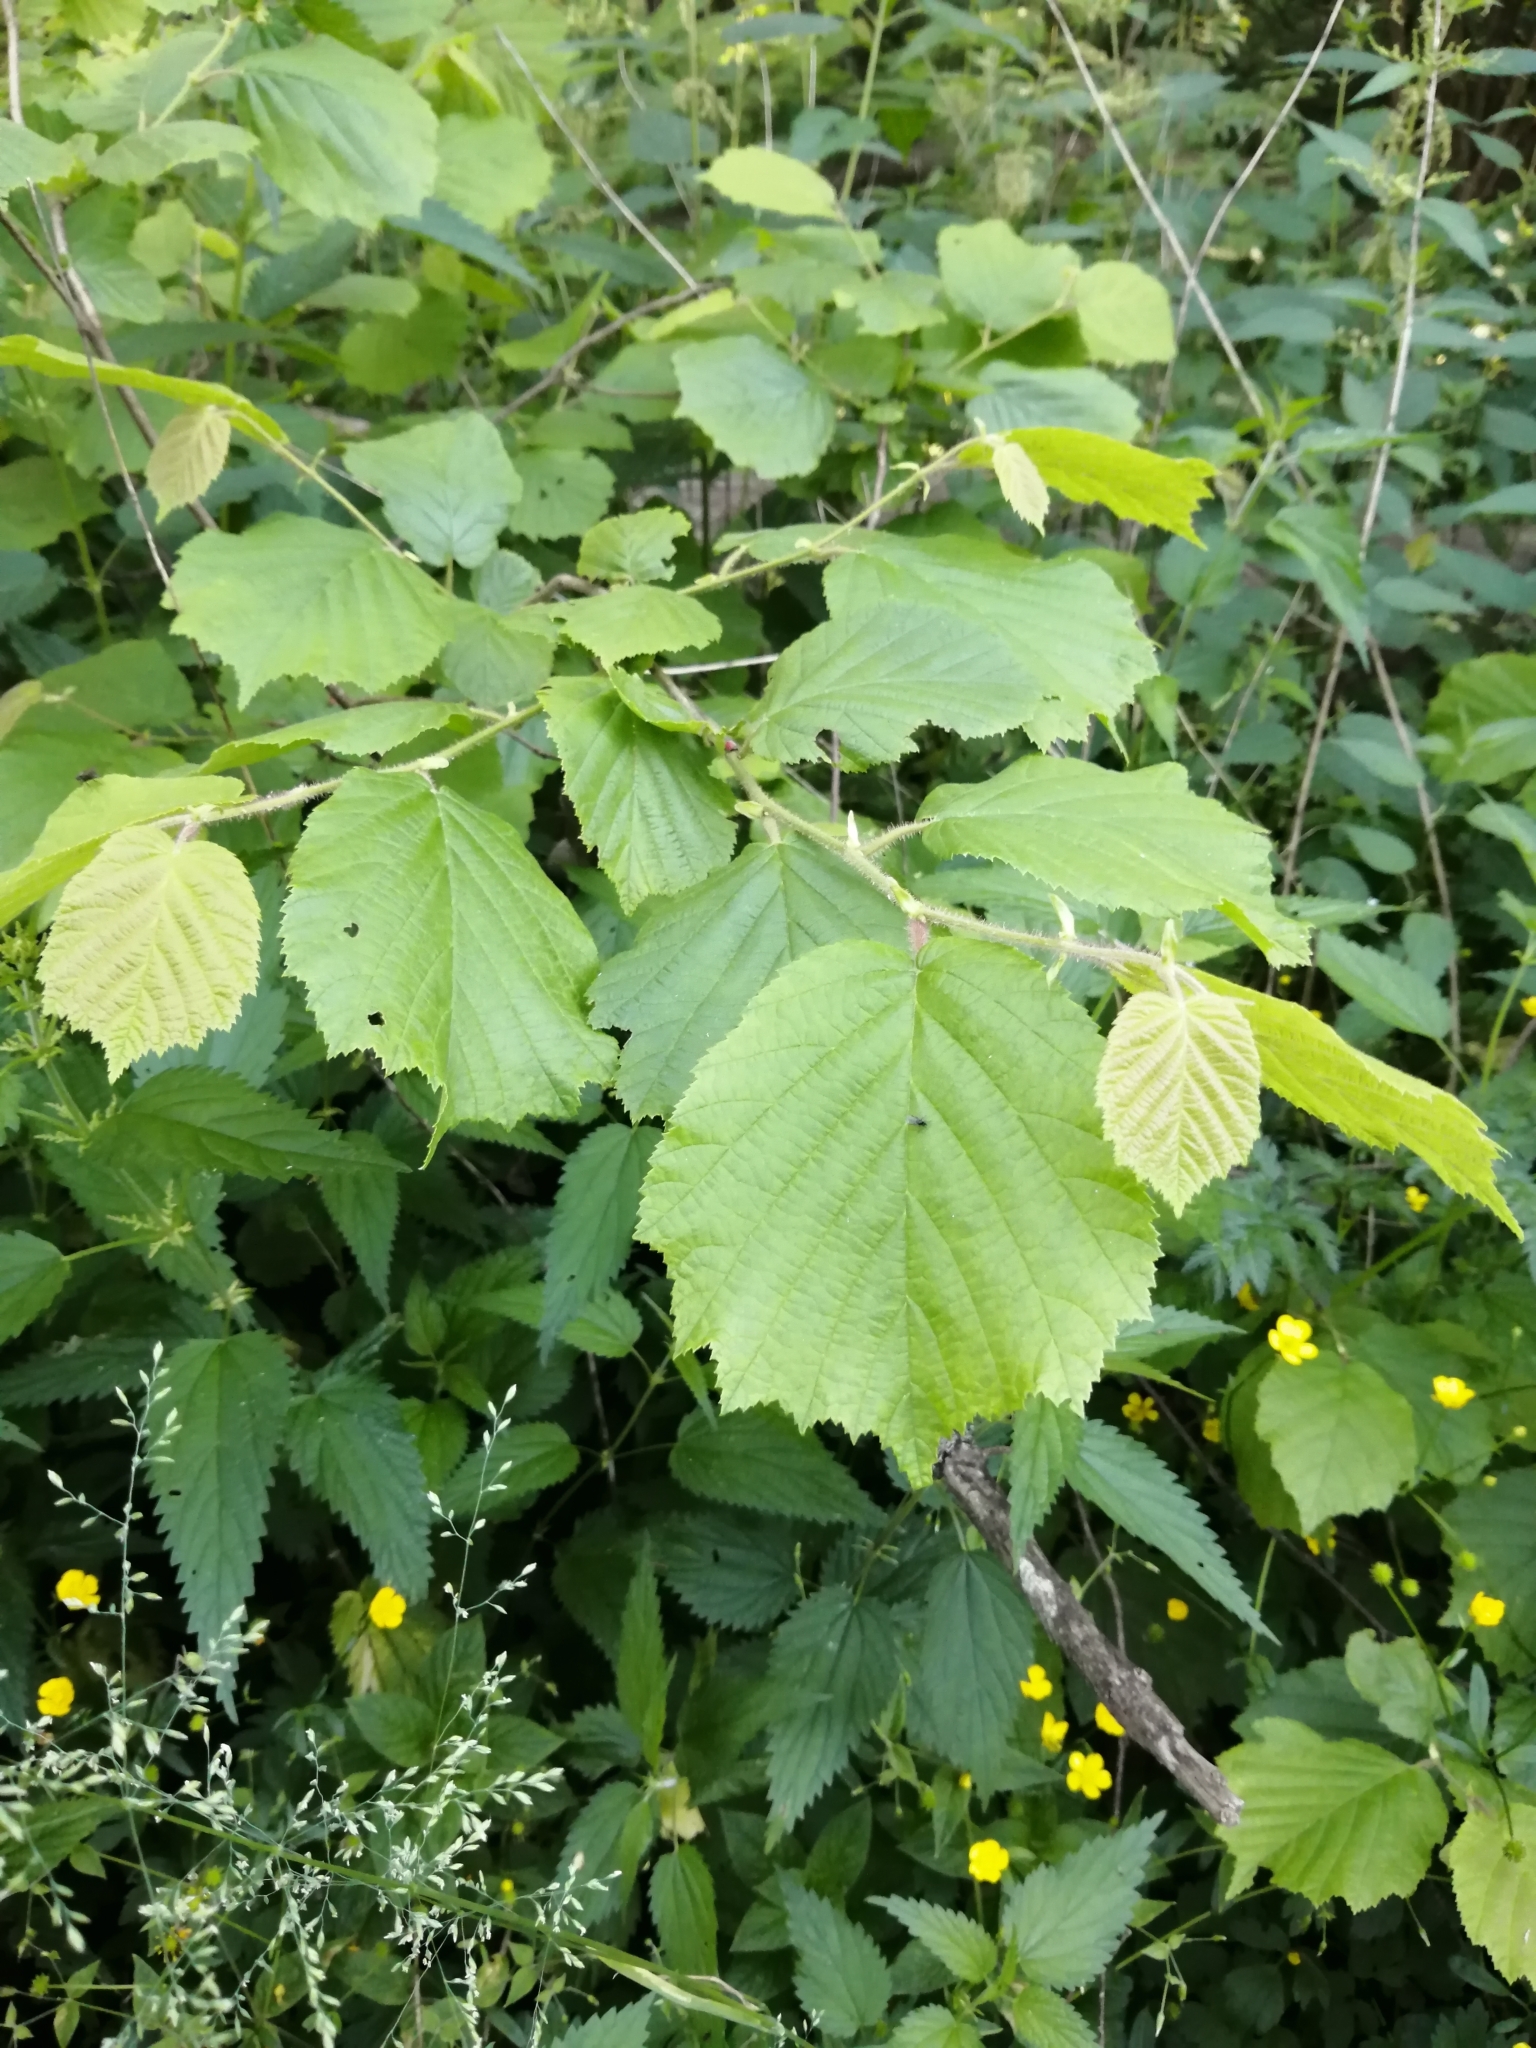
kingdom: Plantae
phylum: Tracheophyta
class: Magnoliopsida
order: Fagales
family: Betulaceae
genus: Corylus
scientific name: Corylus avellana
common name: European hazel
